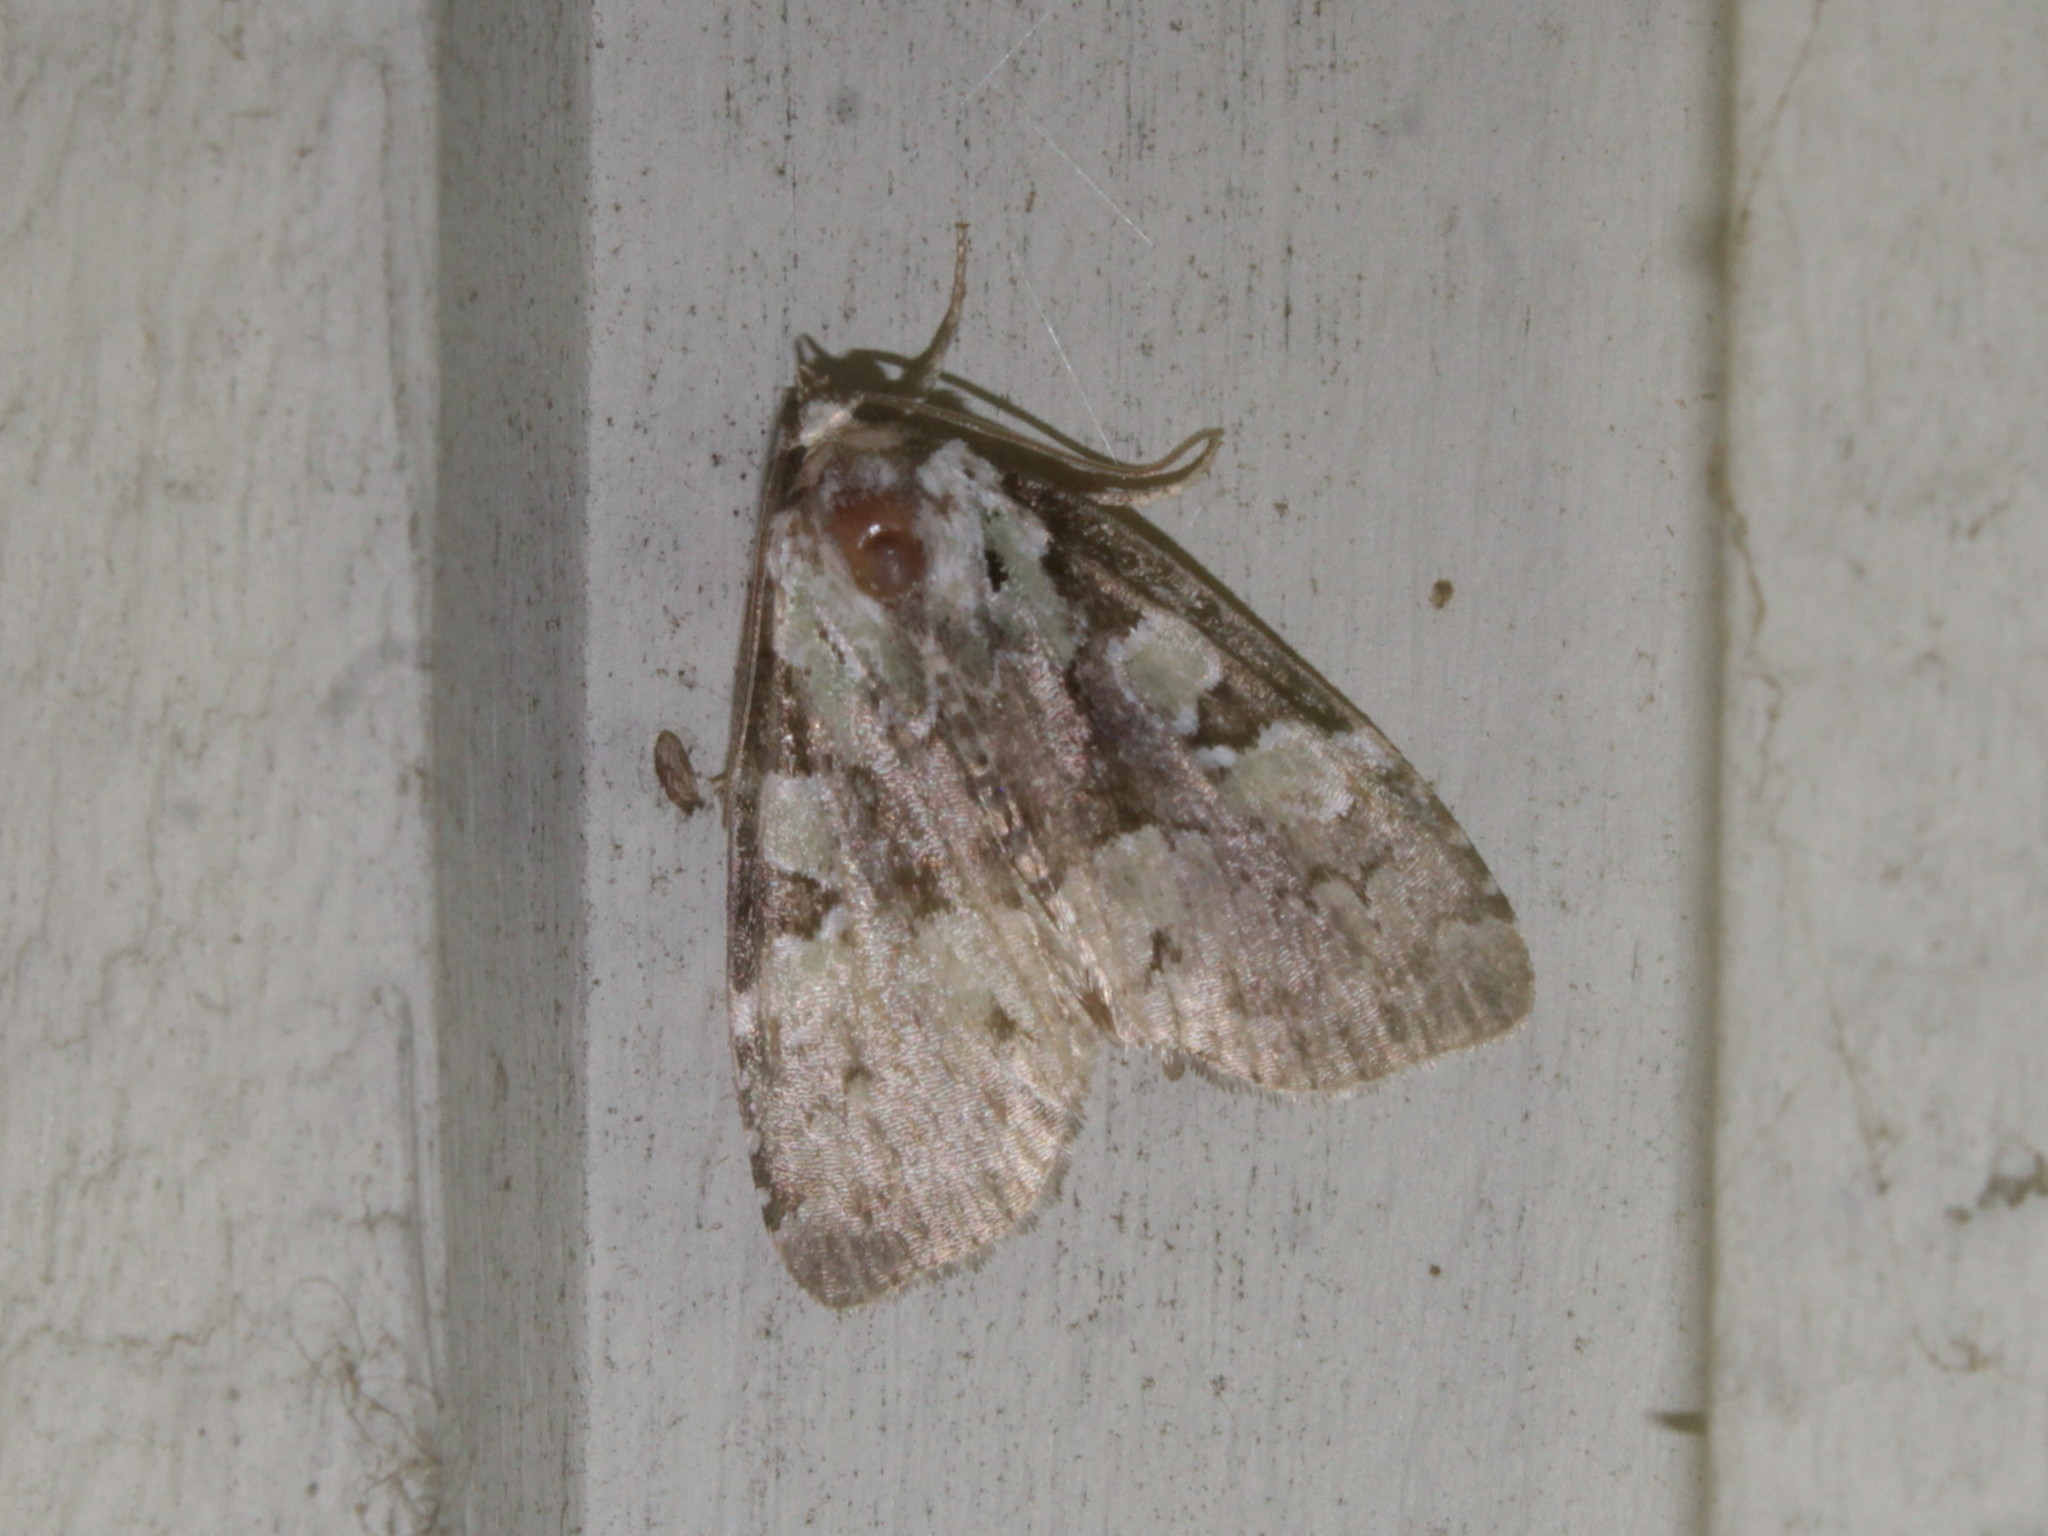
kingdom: Animalia
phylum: Arthropoda
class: Insecta
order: Lepidoptera
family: Noctuidae
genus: Leuconycta
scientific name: Leuconycta lepidula
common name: Marbled-green leuconycta moth
